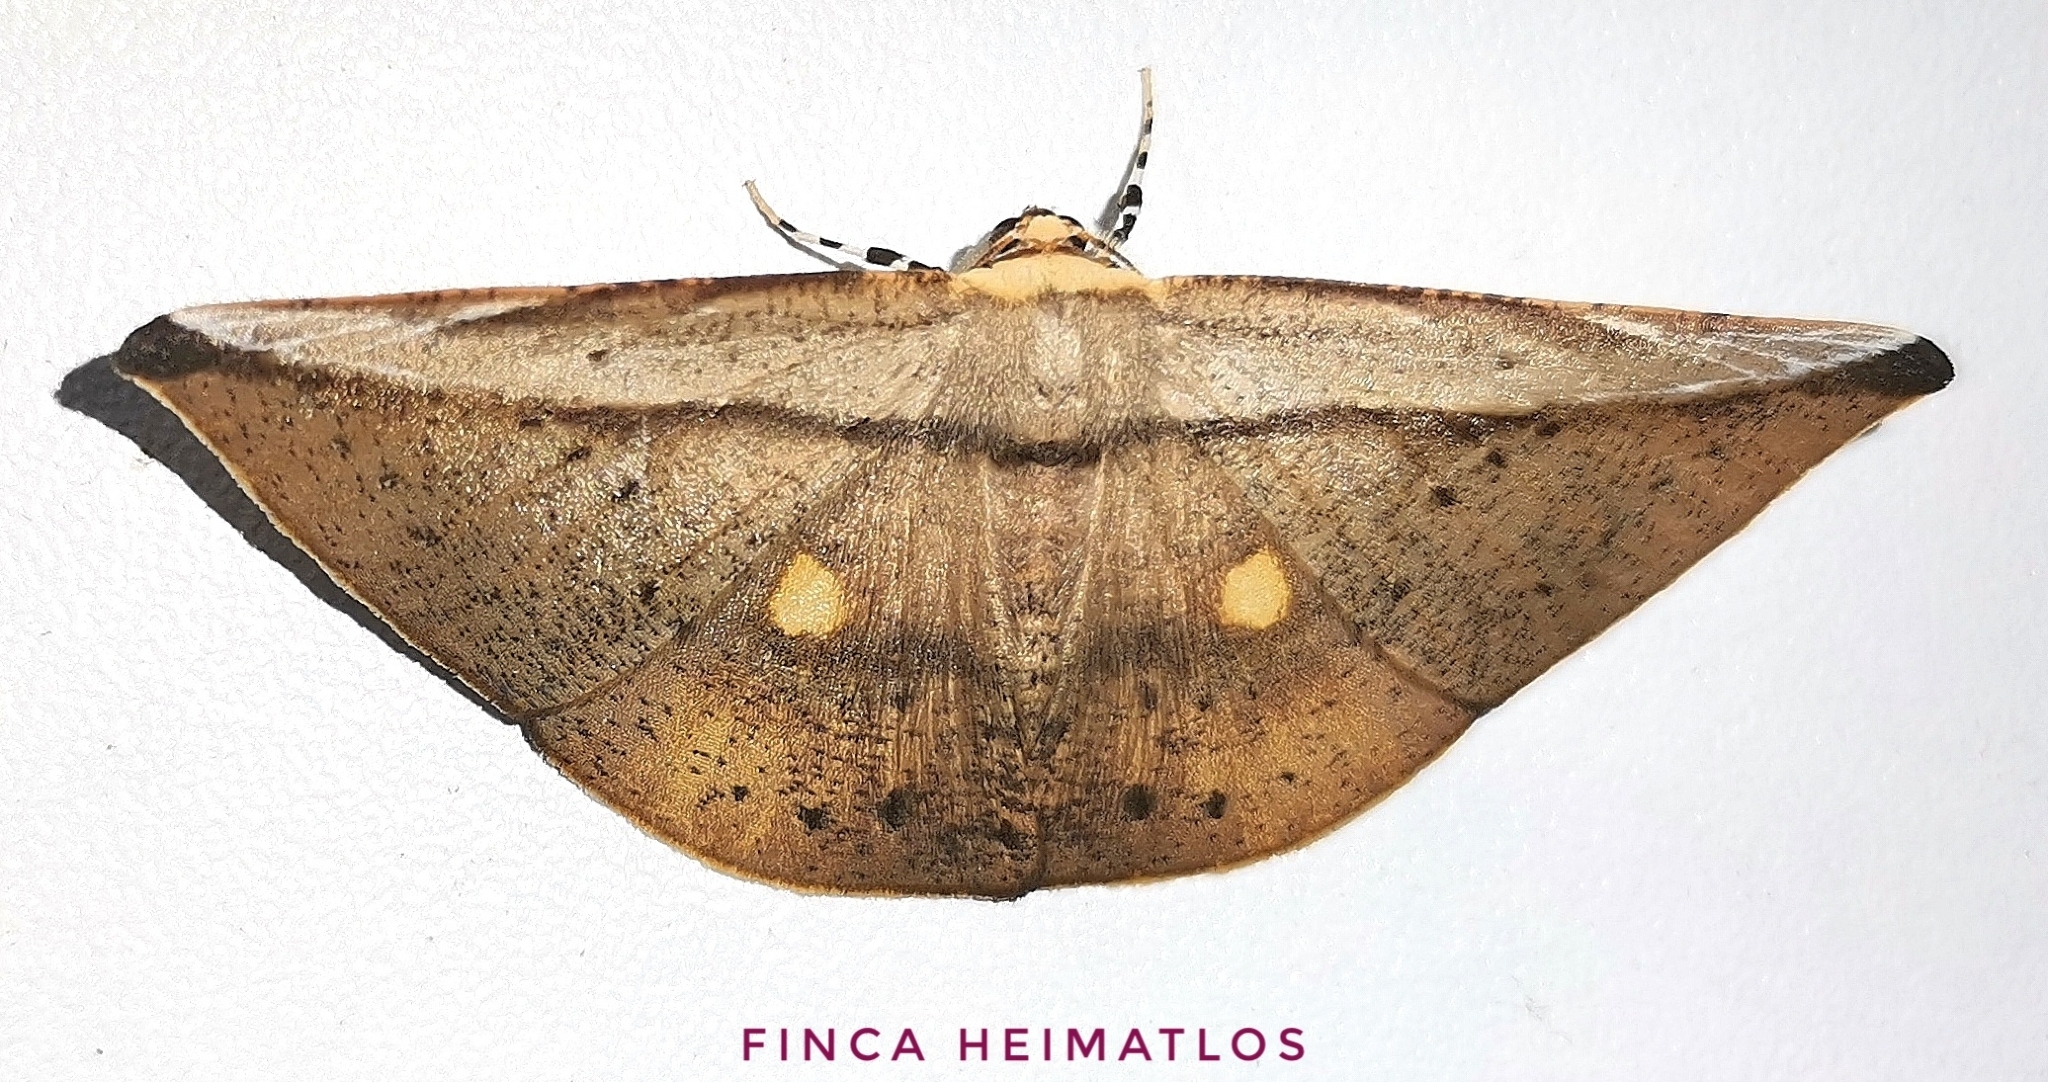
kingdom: Animalia
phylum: Arthropoda
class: Insecta
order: Lepidoptera
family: Geometridae
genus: Polla
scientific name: Polla varipes
